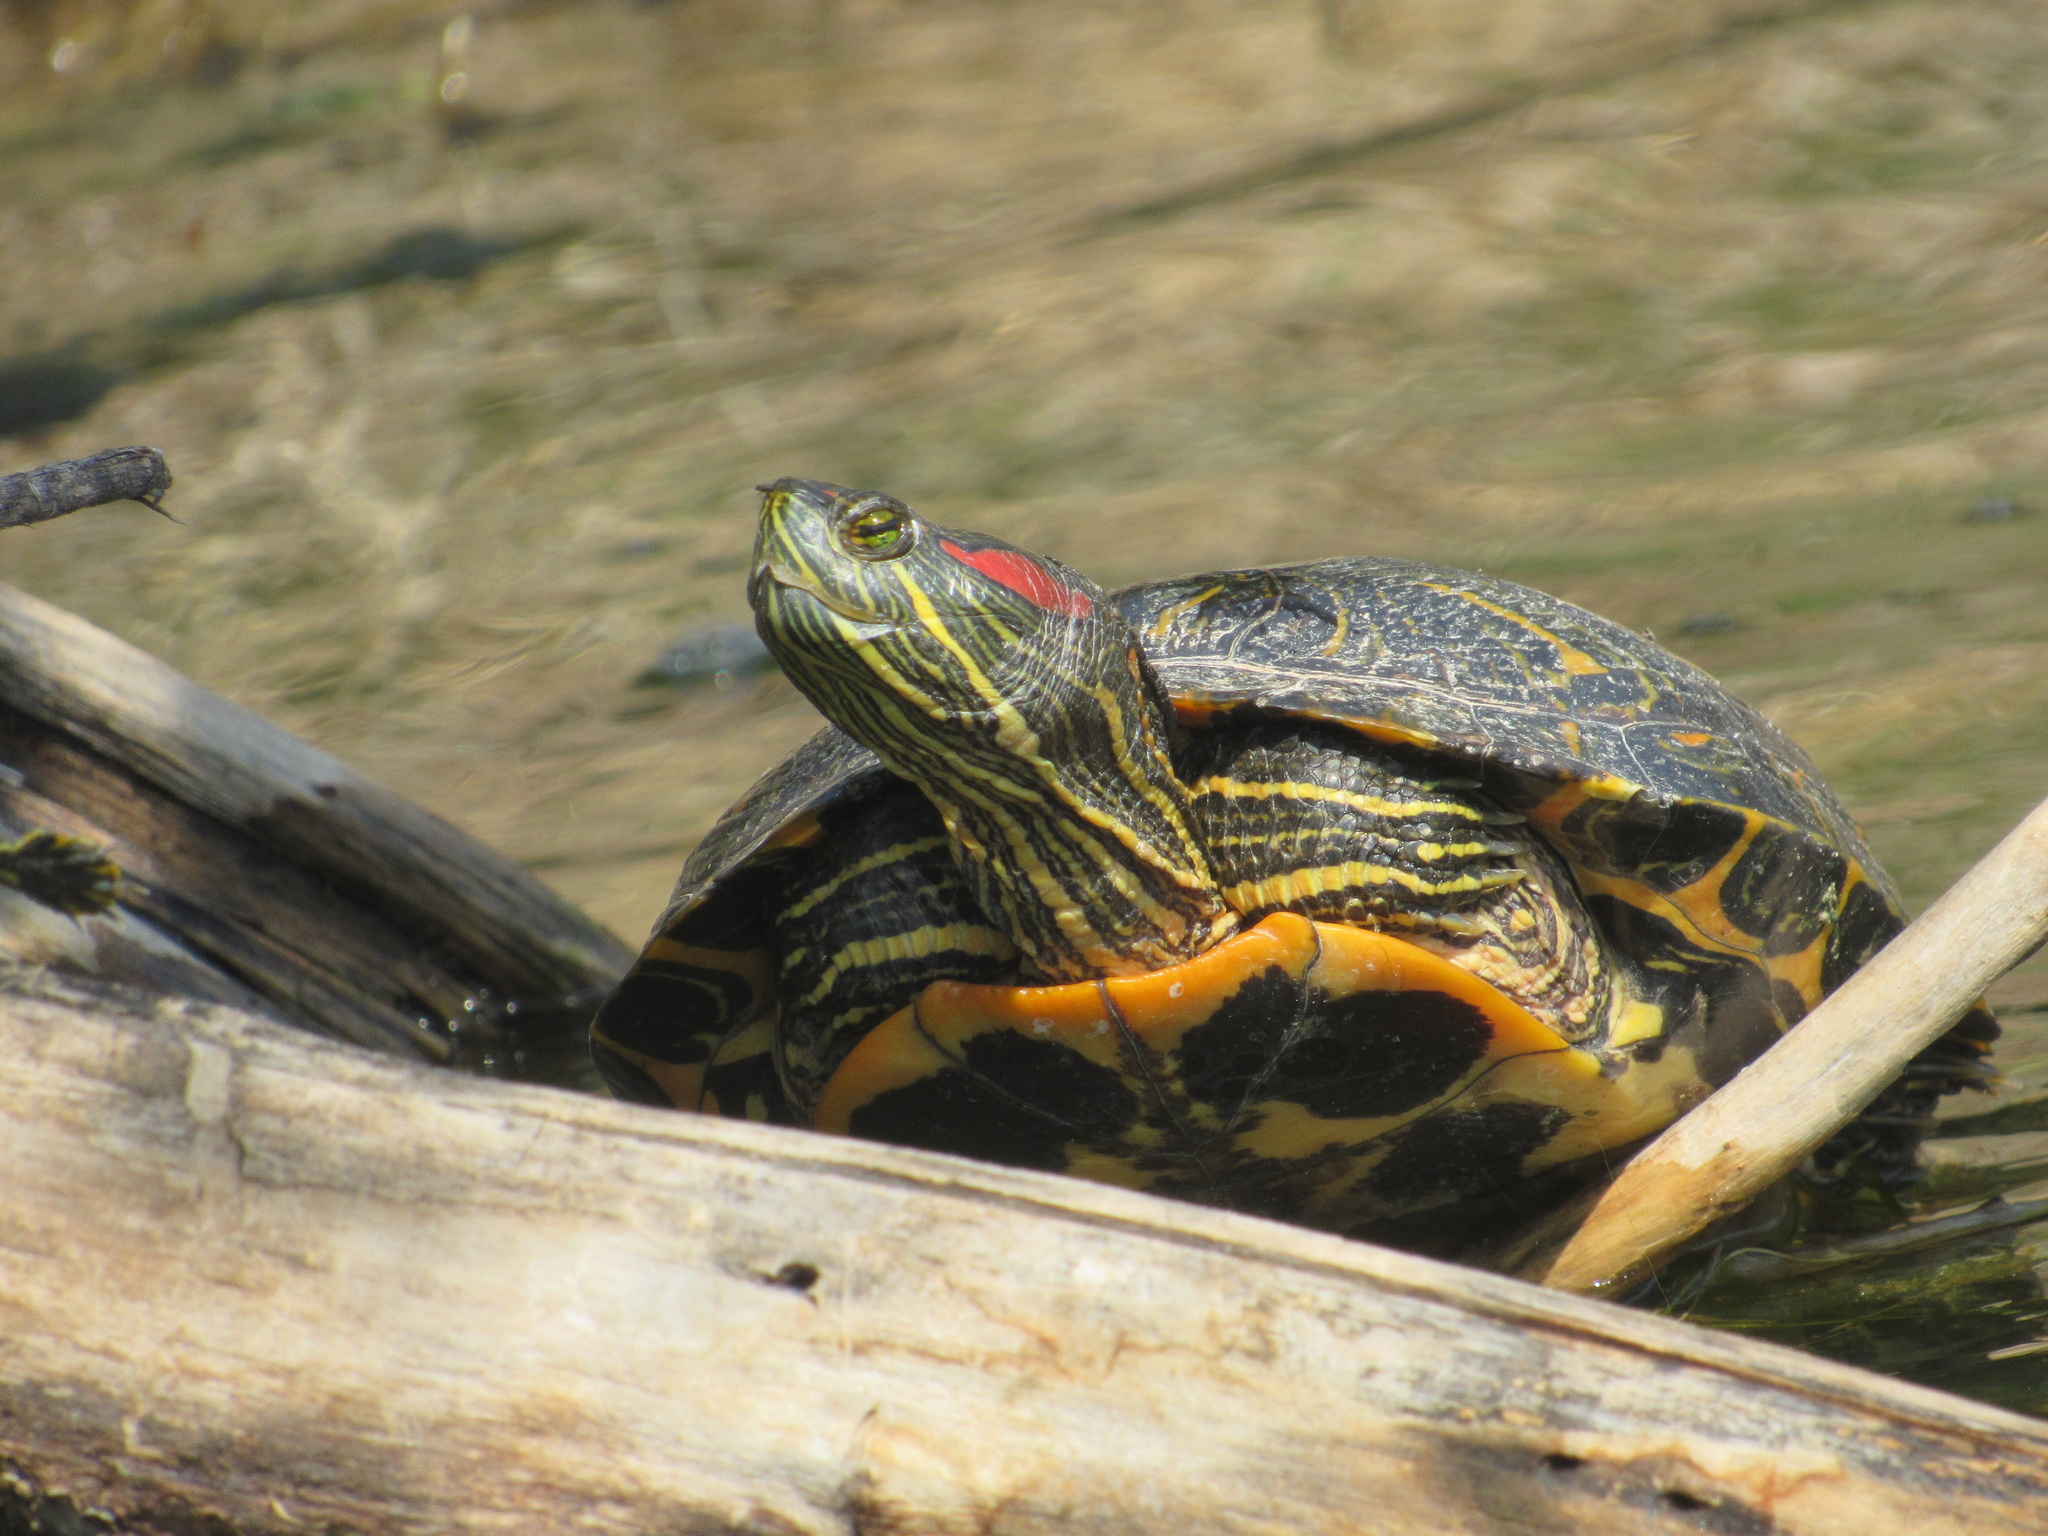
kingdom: Animalia
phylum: Chordata
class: Testudines
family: Emydidae
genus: Trachemys
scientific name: Trachemys scripta
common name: Slider
